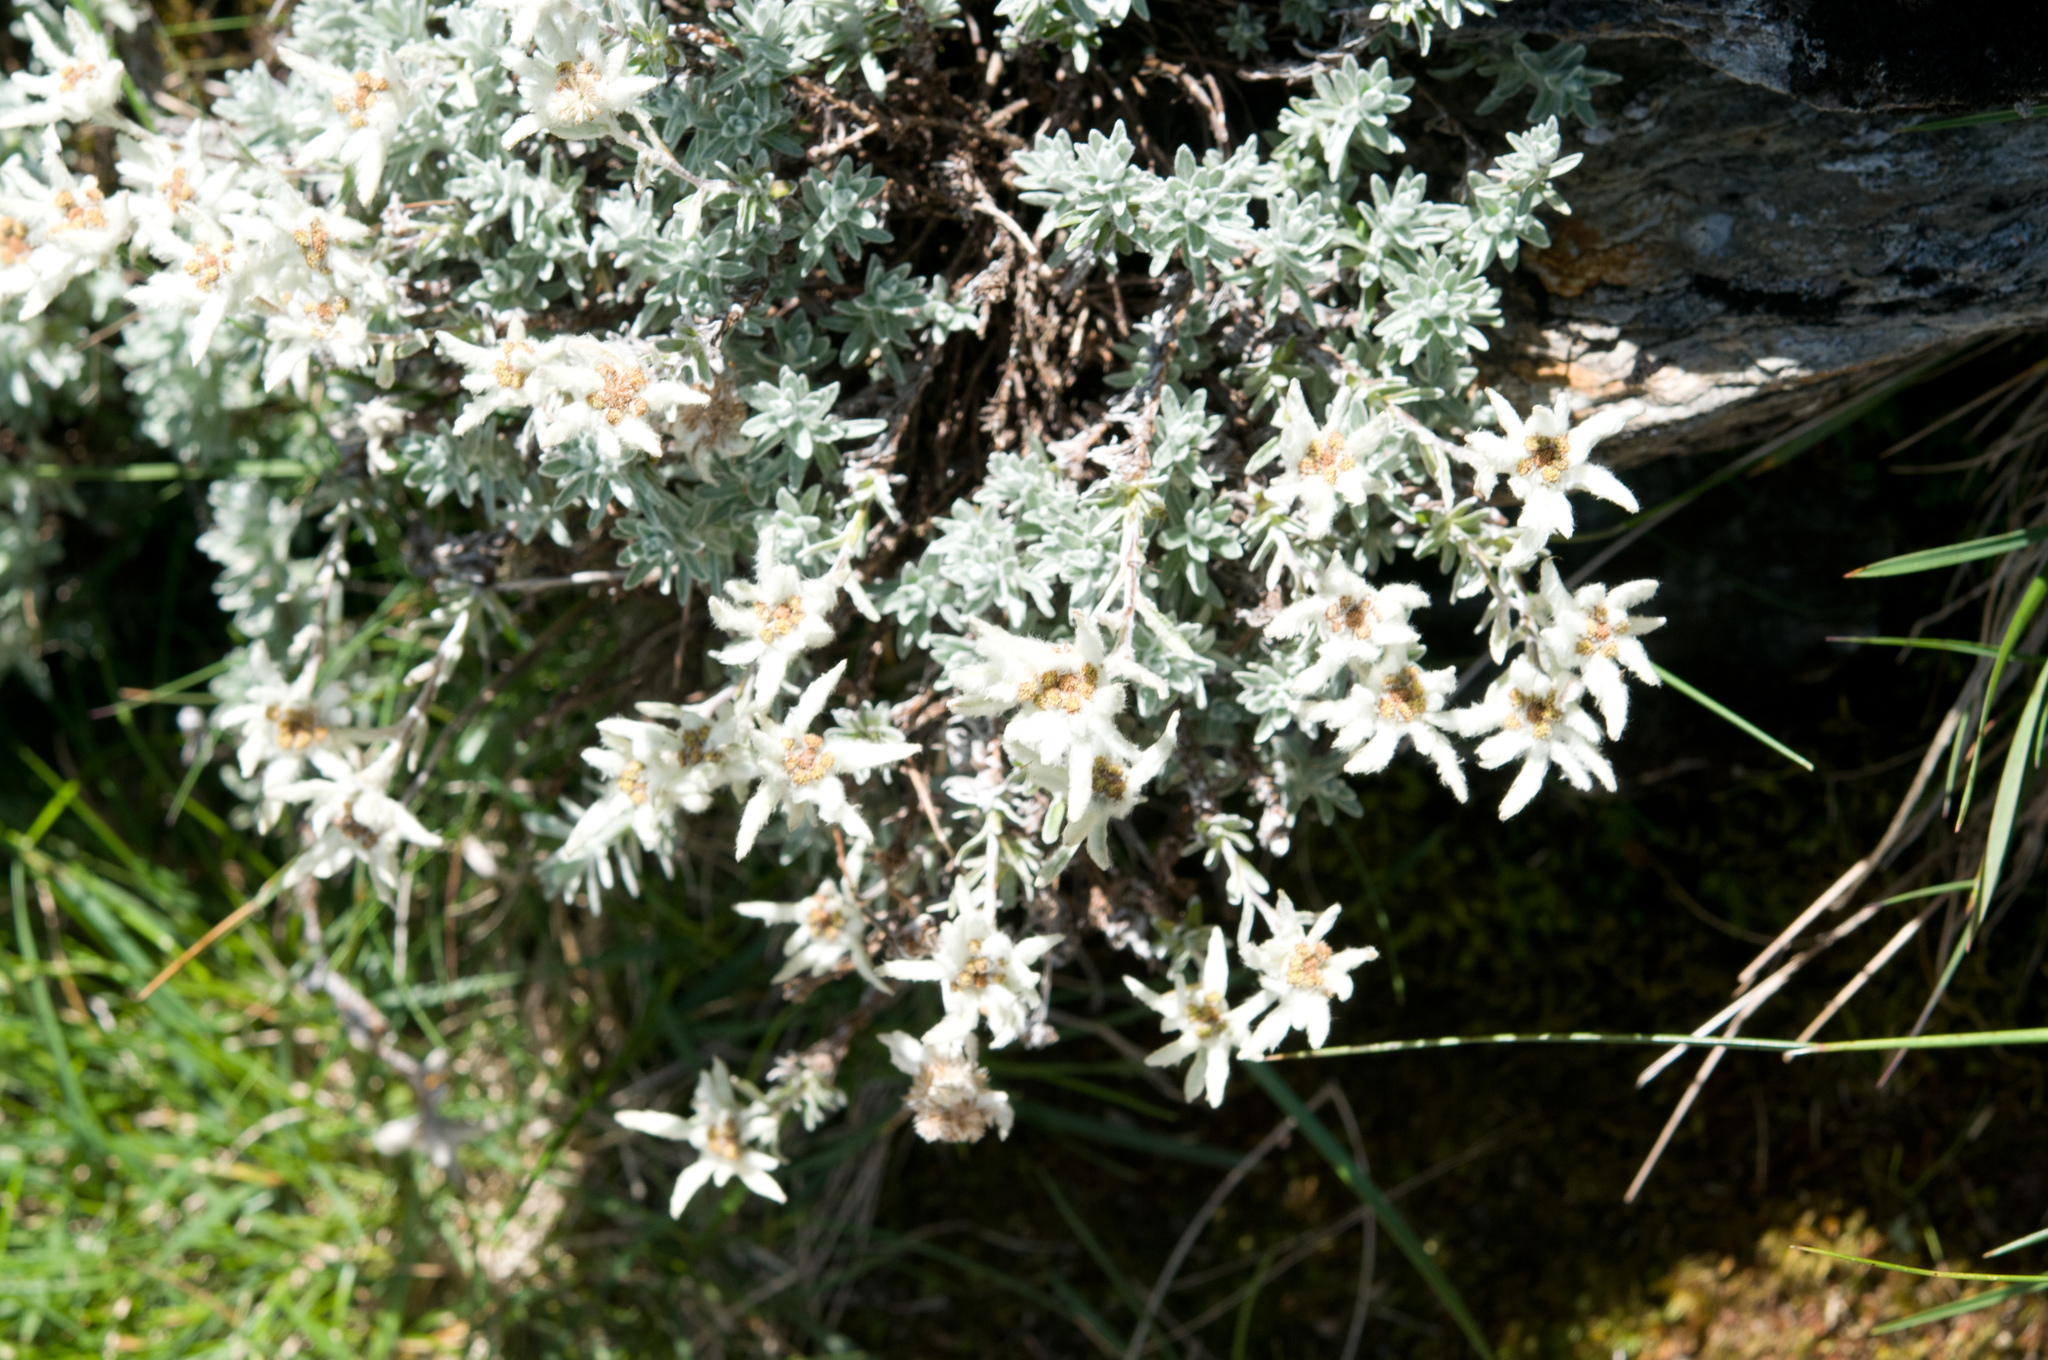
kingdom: Plantae
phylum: Tracheophyta
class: Magnoliopsida
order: Asterales
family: Asteraceae
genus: Leontopodium
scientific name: Leontopodium microphyllum
